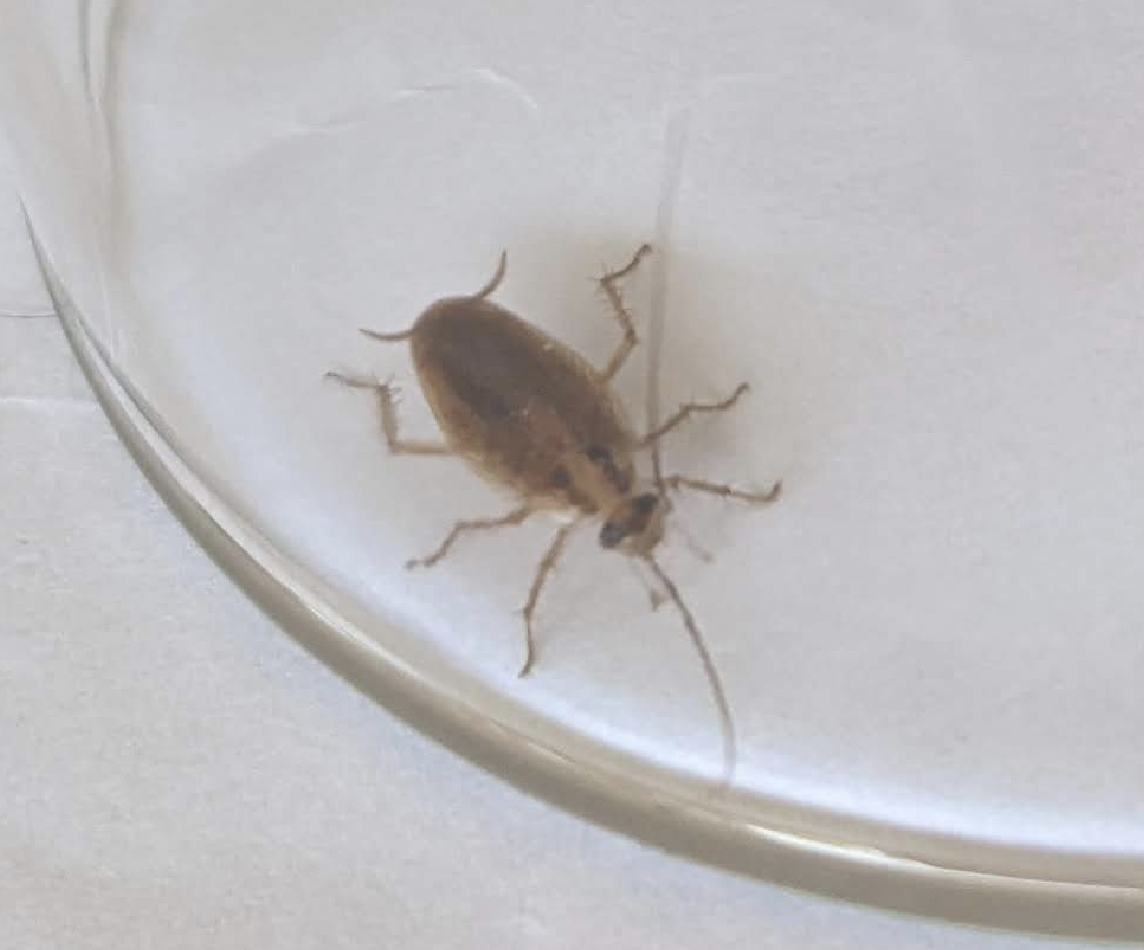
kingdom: Animalia
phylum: Arthropoda
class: Insecta
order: Blattodea
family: Ectobiidae
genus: Blattella
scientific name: Blattella germanica
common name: German cockroach
